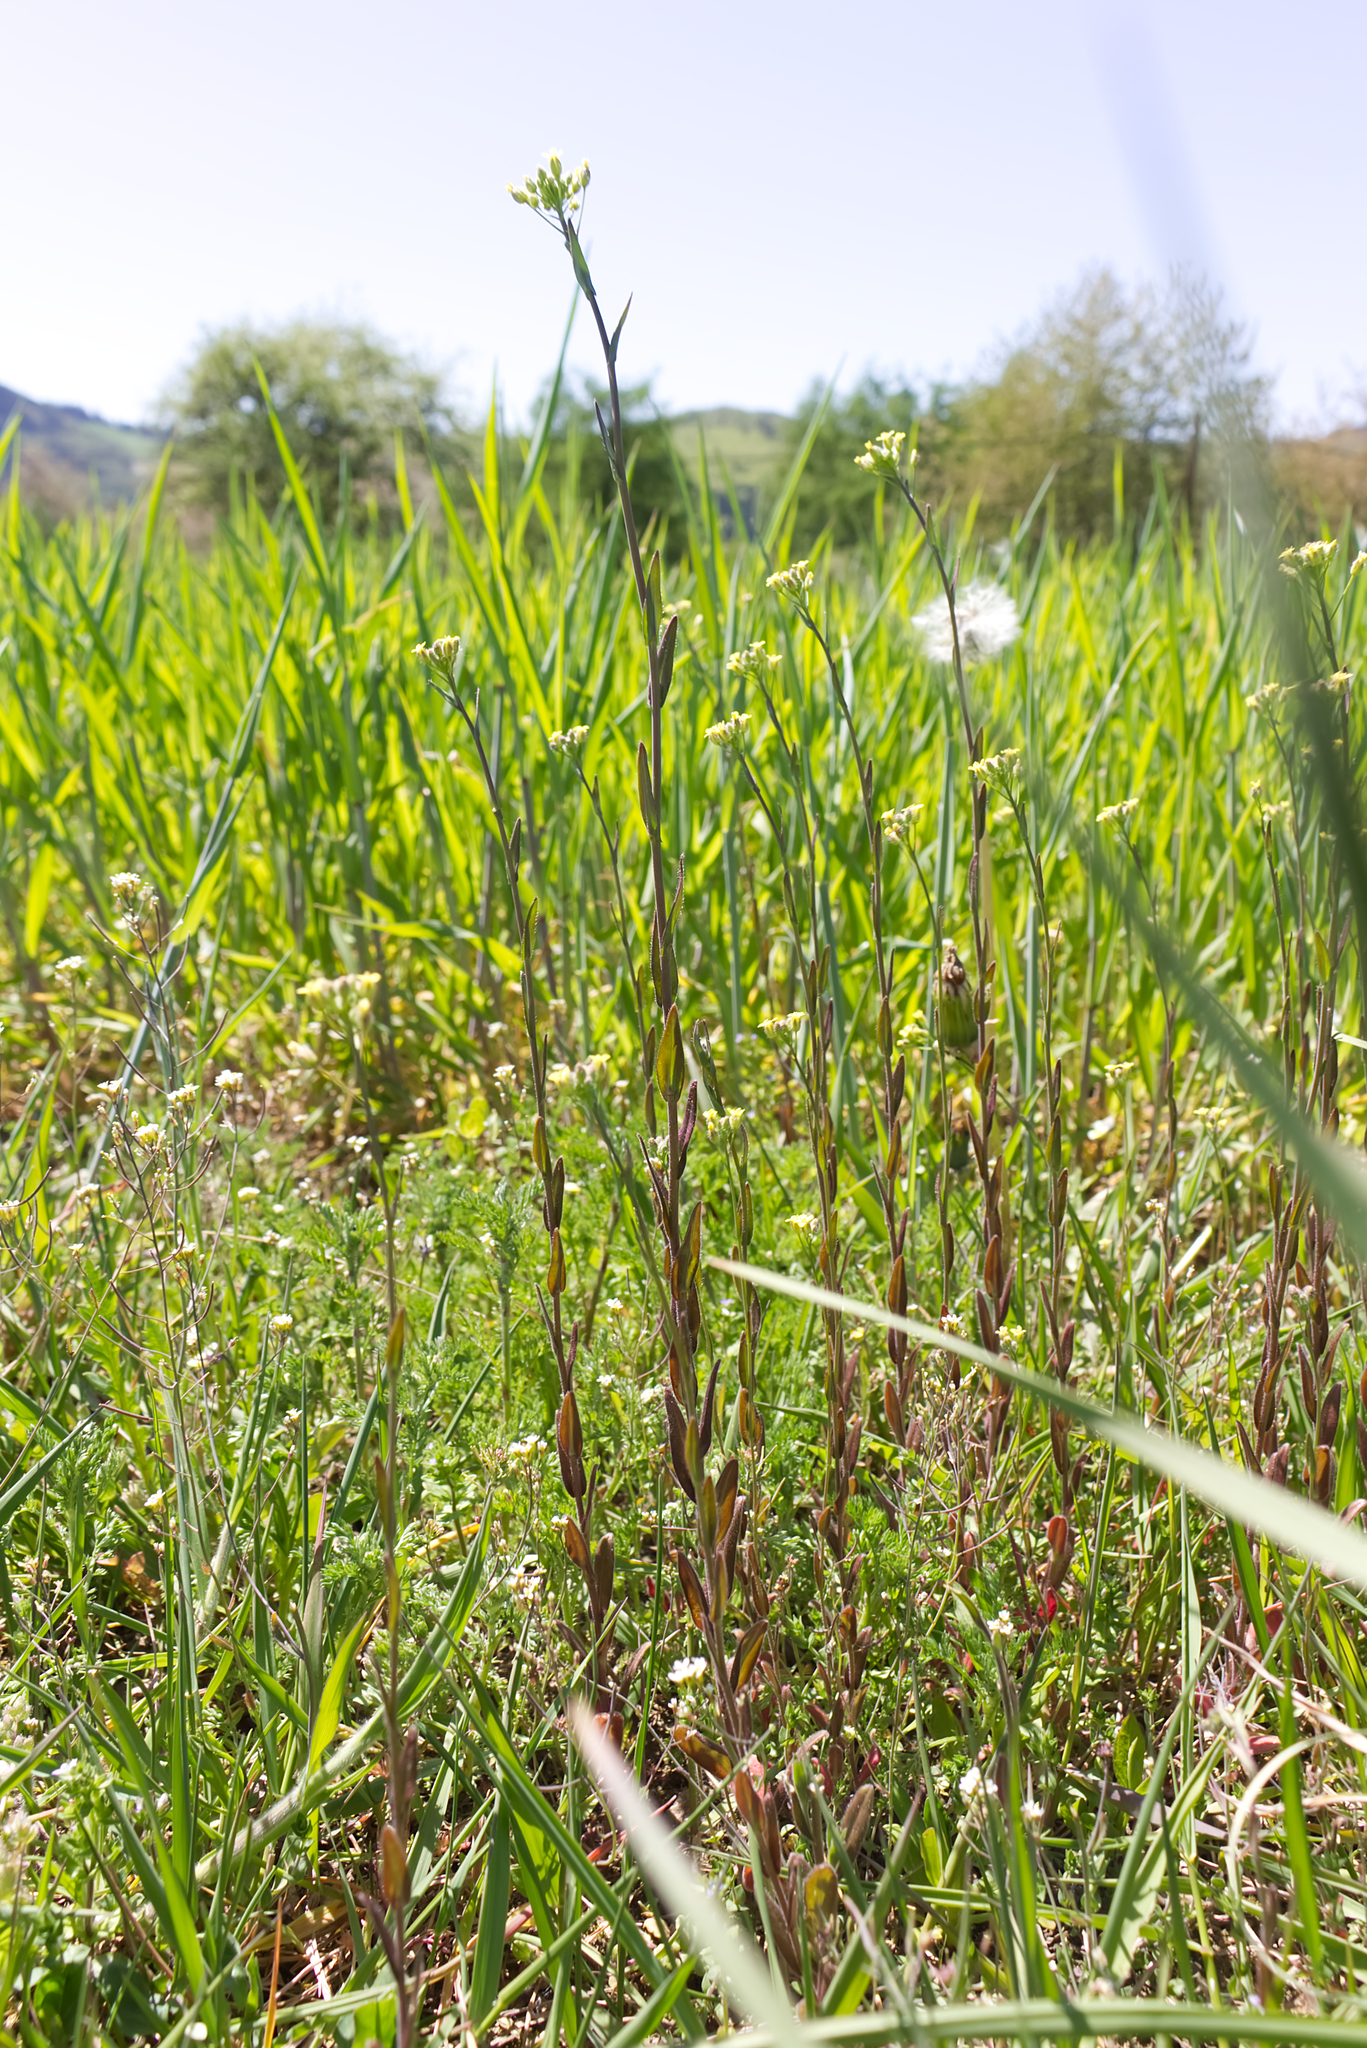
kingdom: Plantae
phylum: Tracheophyta
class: Magnoliopsida
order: Brassicales
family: Brassicaceae
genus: Camelina
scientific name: Camelina microcarpa
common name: Lesser gold-of-pleasure
